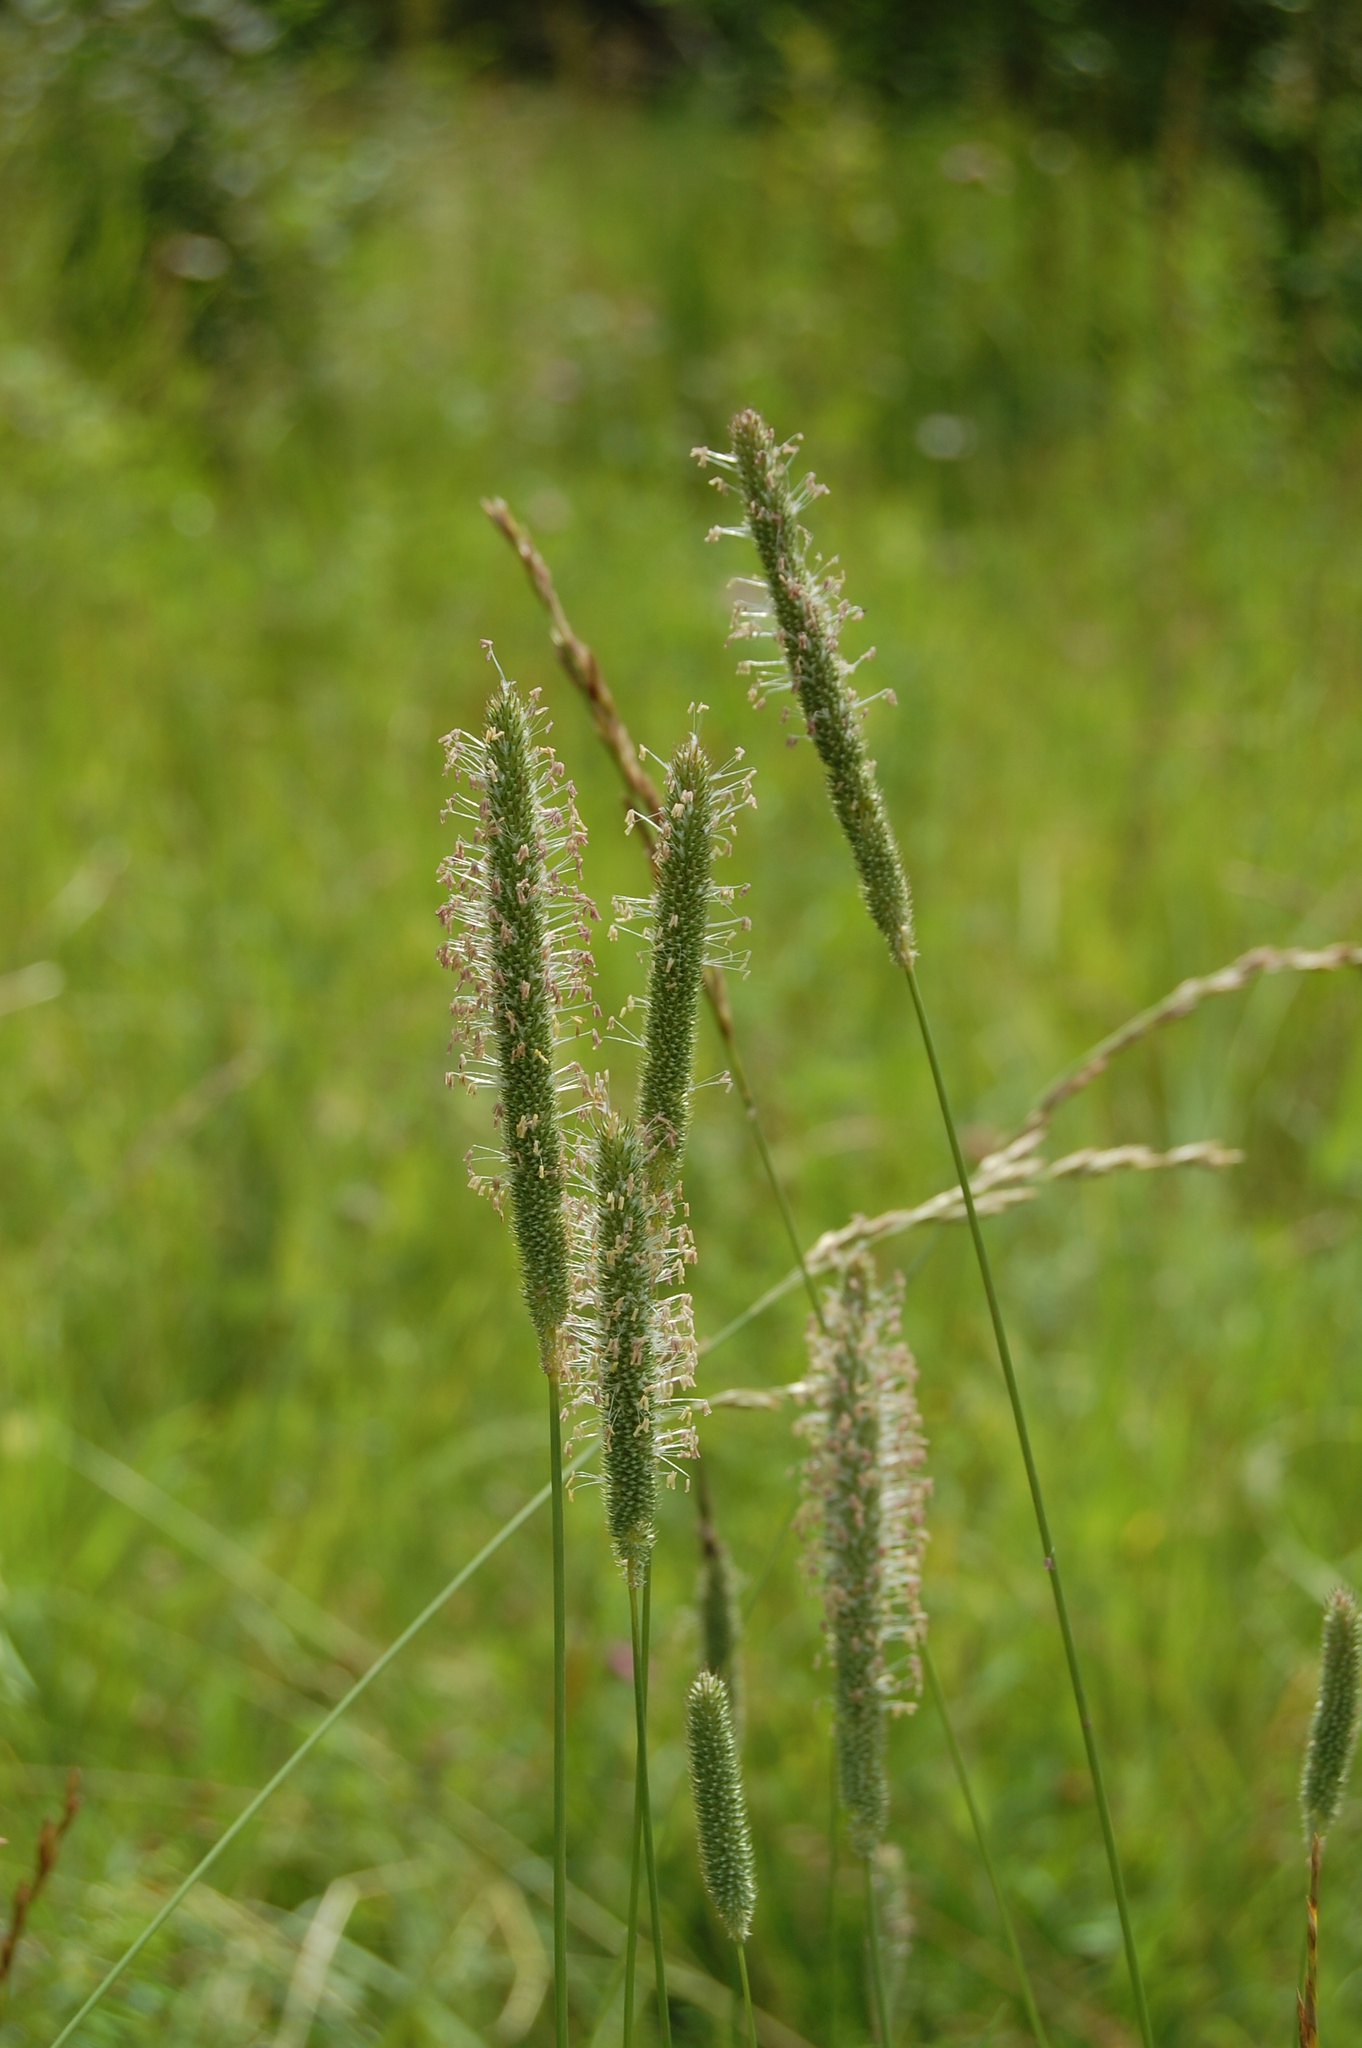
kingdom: Plantae
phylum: Tracheophyta
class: Liliopsida
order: Poales
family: Poaceae
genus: Phleum
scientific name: Phleum pratense
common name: Timothy grass
